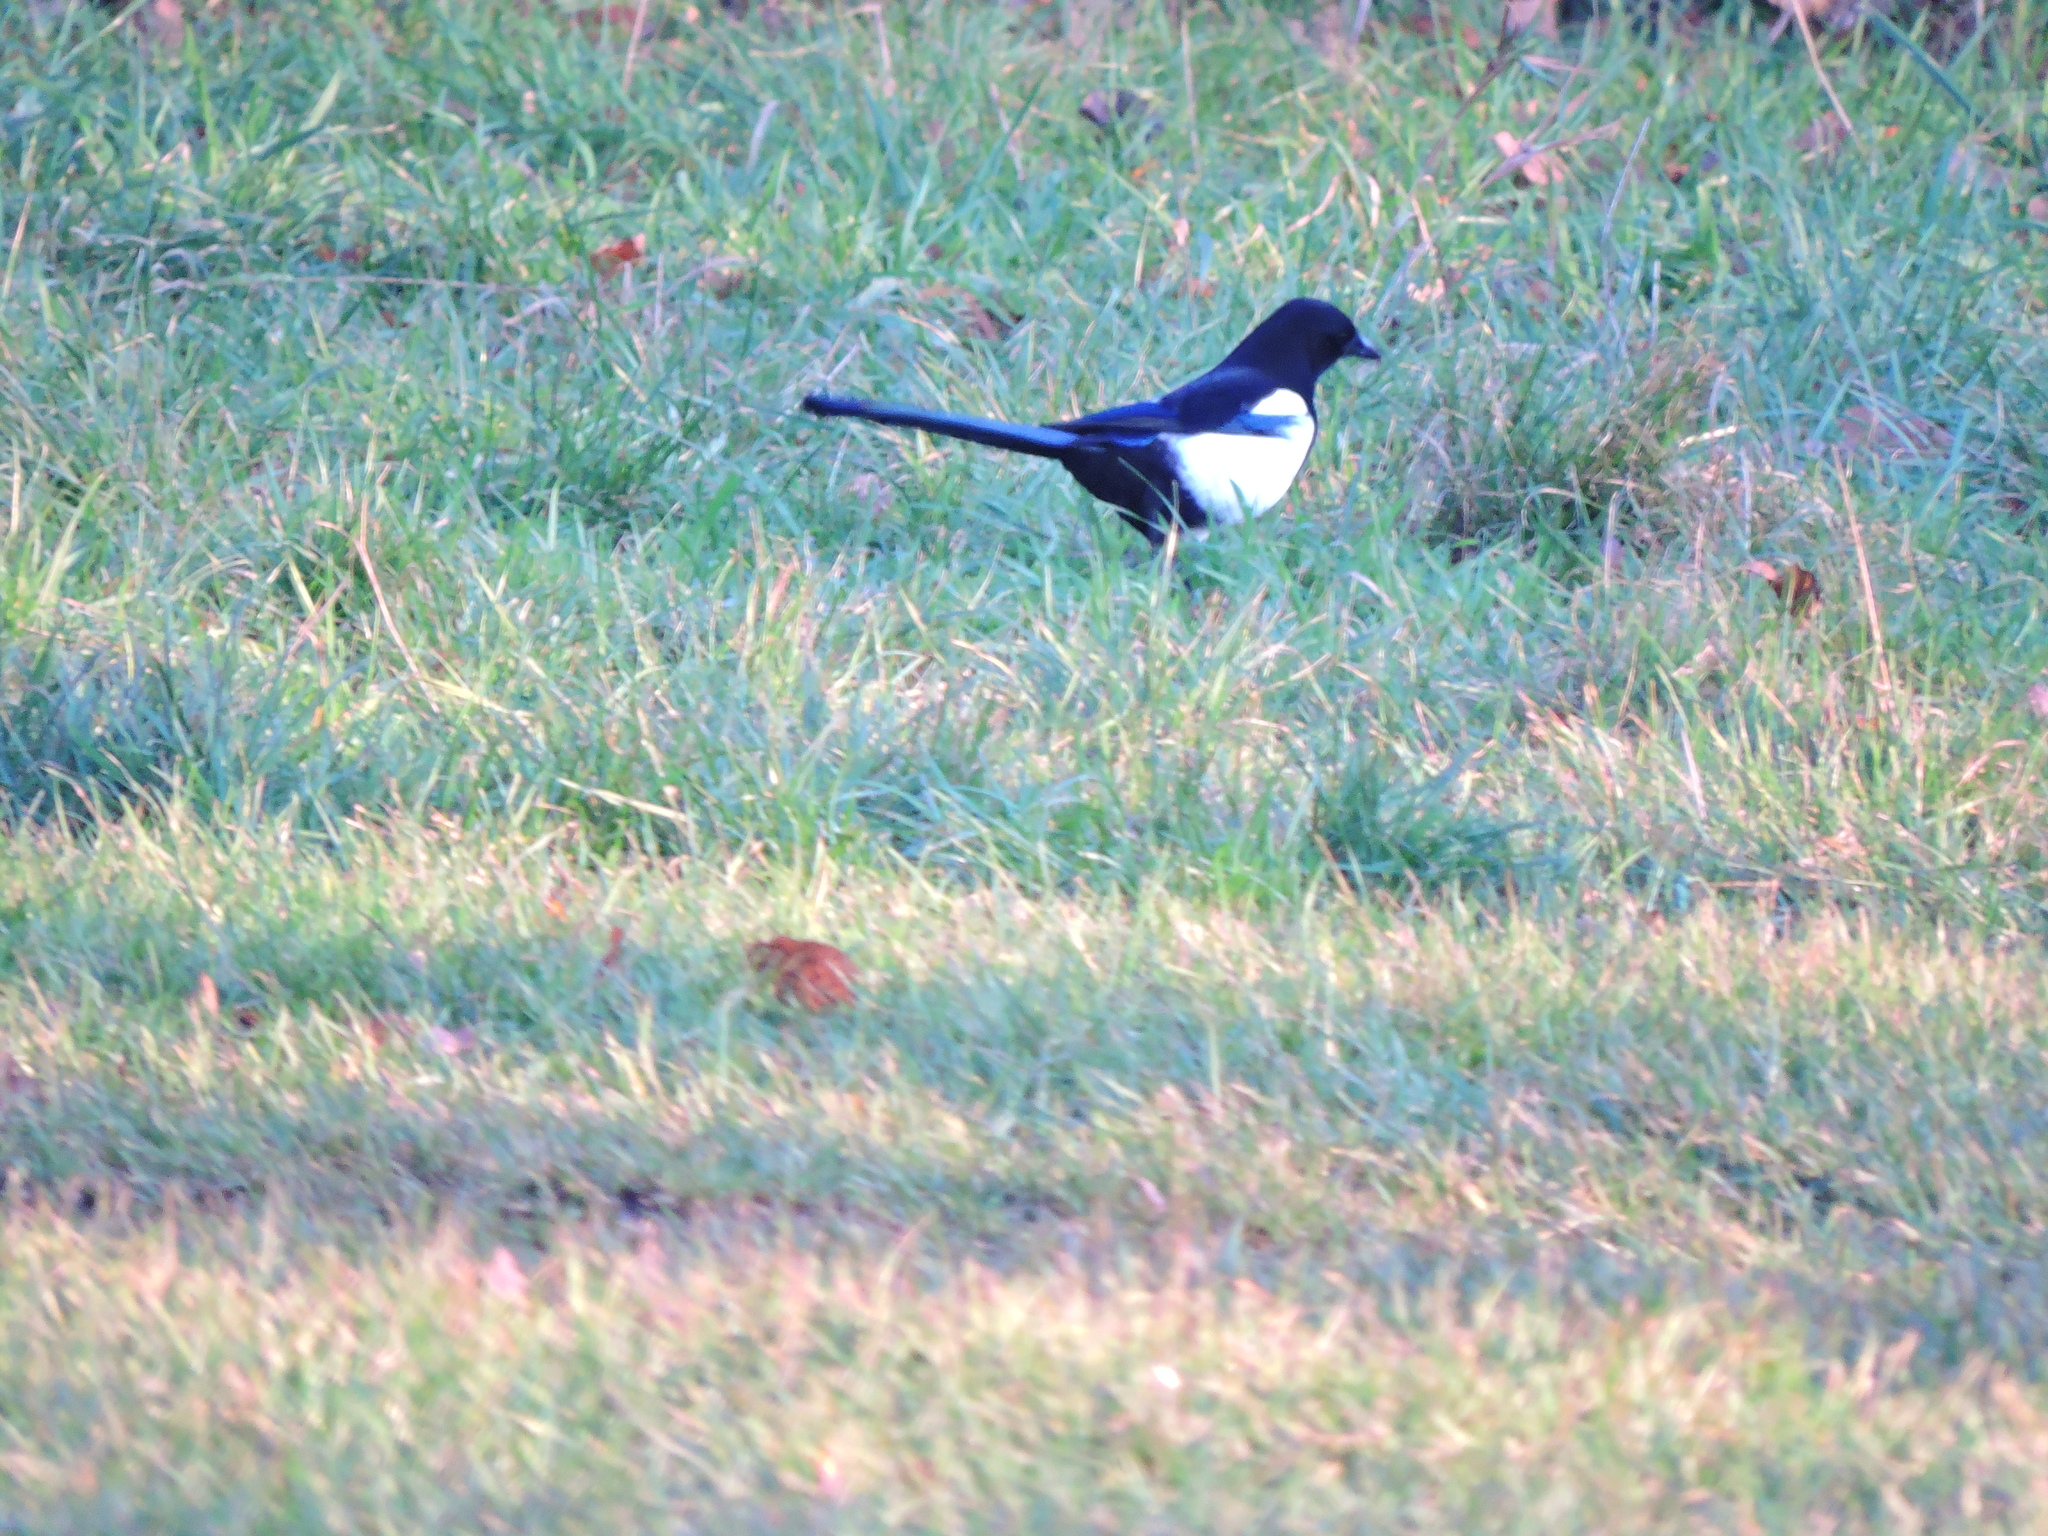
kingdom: Animalia
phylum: Chordata
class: Aves
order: Passeriformes
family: Corvidae
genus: Pica
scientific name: Pica pica
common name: Eurasian magpie
